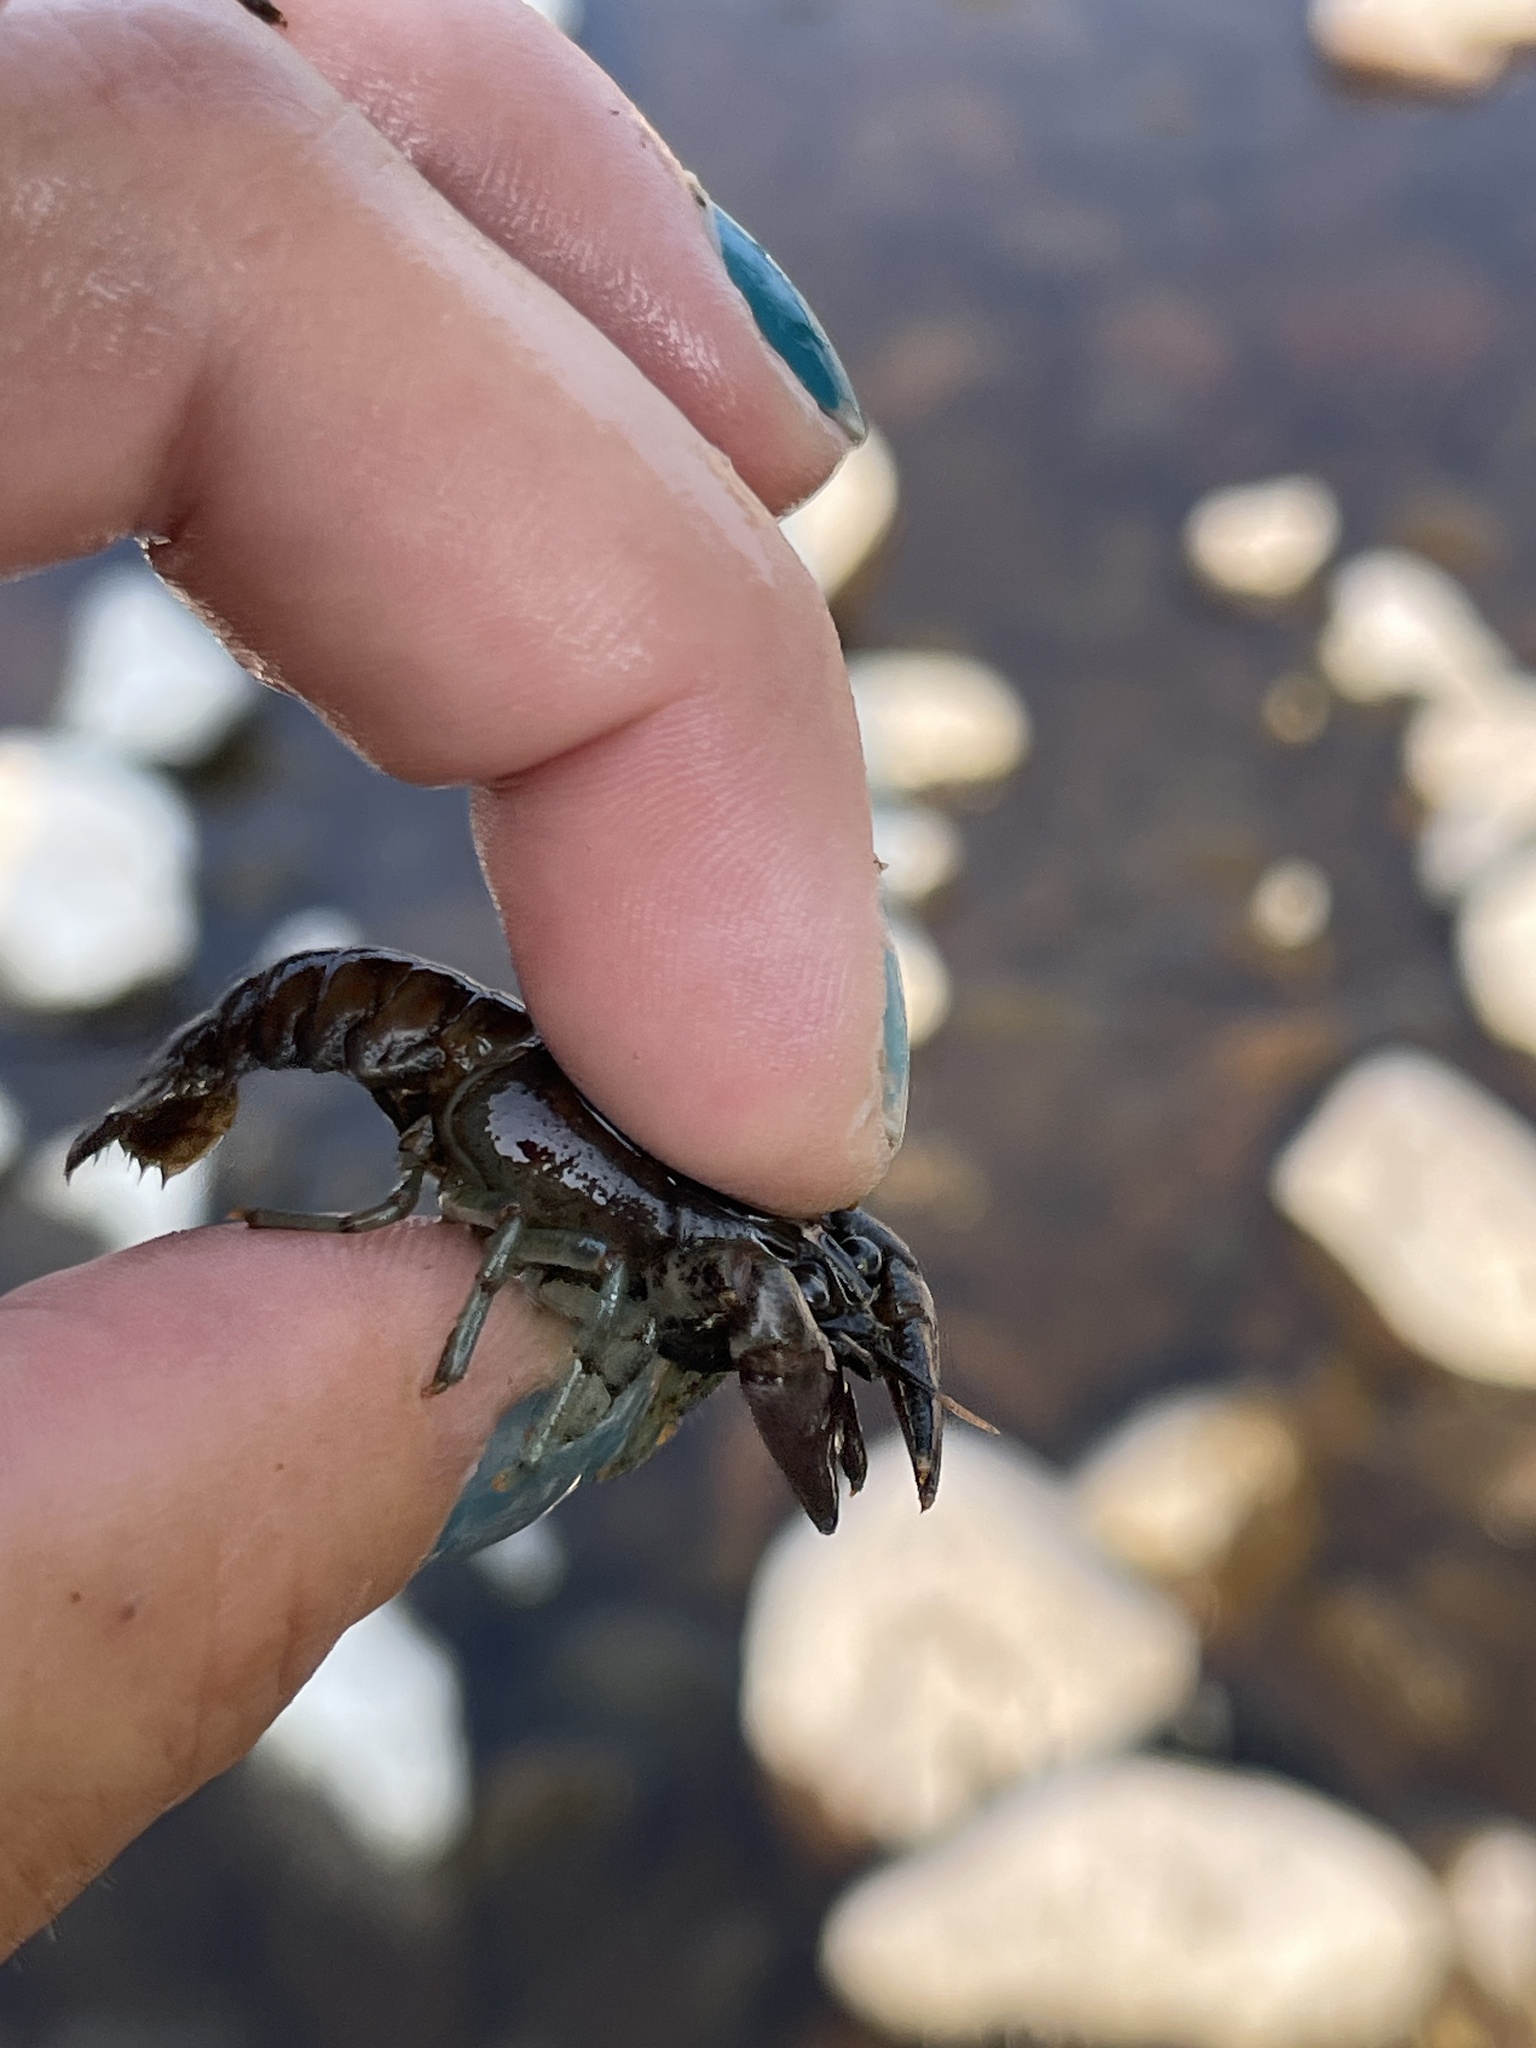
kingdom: Animalia
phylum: Arthropoda
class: Malacostraca
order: Decapoda
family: Cambaridae
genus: Faxonius
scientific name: Faxonius rusticus
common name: Rusty crayfish
